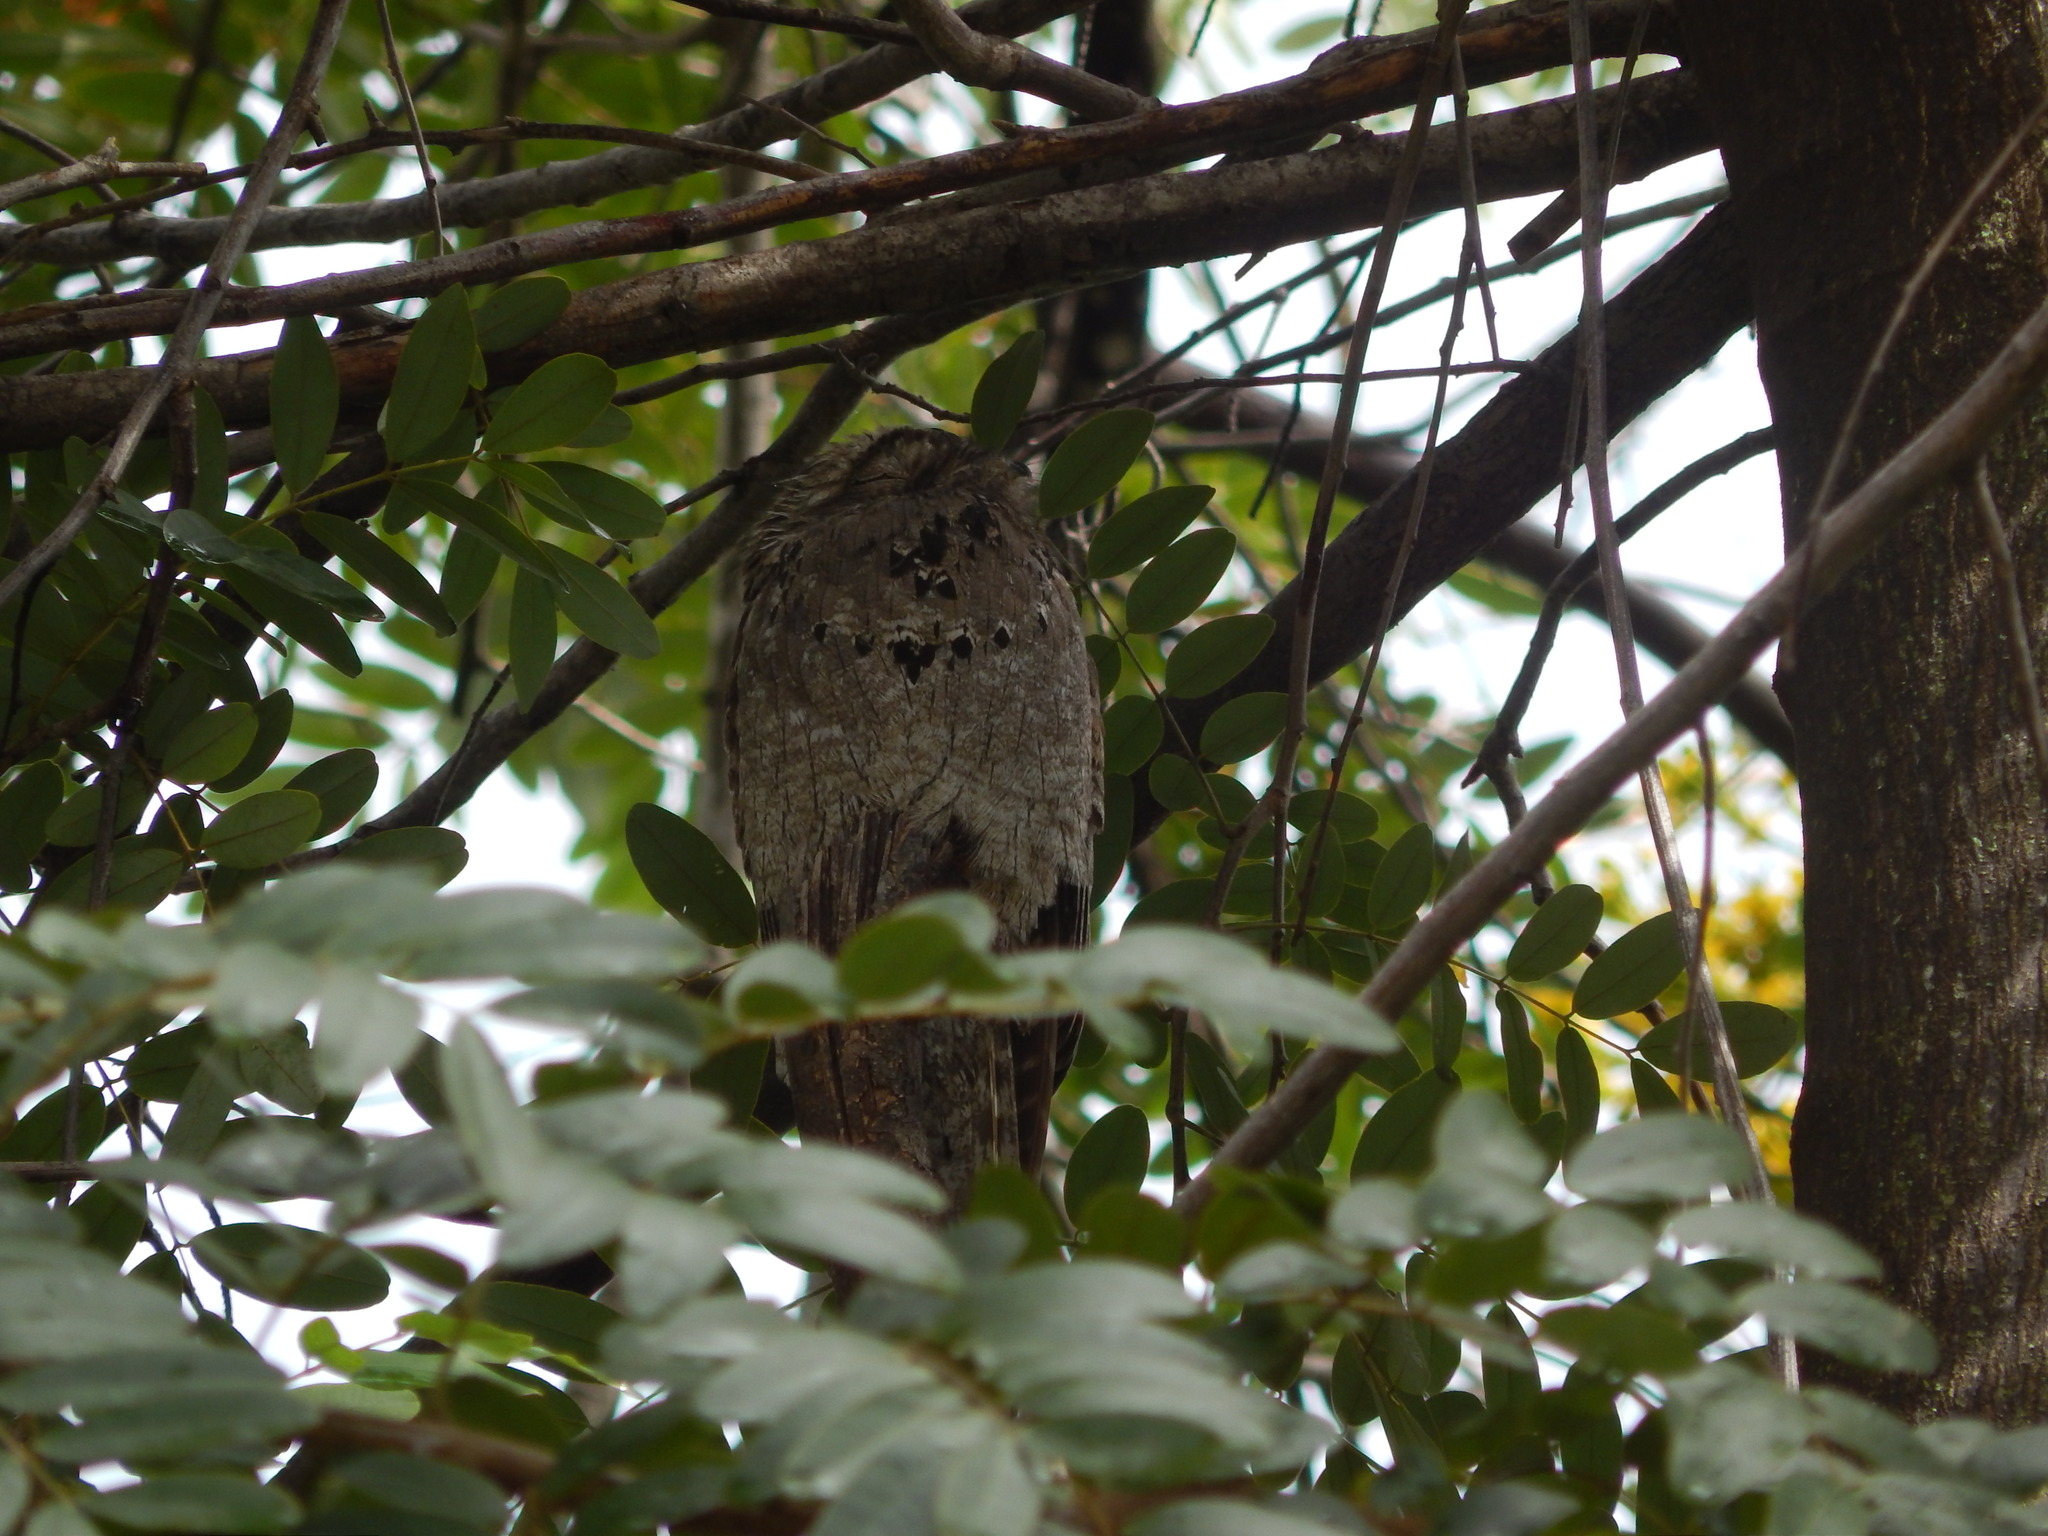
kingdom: Animalia
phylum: Chordata
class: Aves
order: Nyctibiiformes
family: Nyctibiidae
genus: Nyctibius
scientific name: Nyctibius griseus
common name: Common potoo
